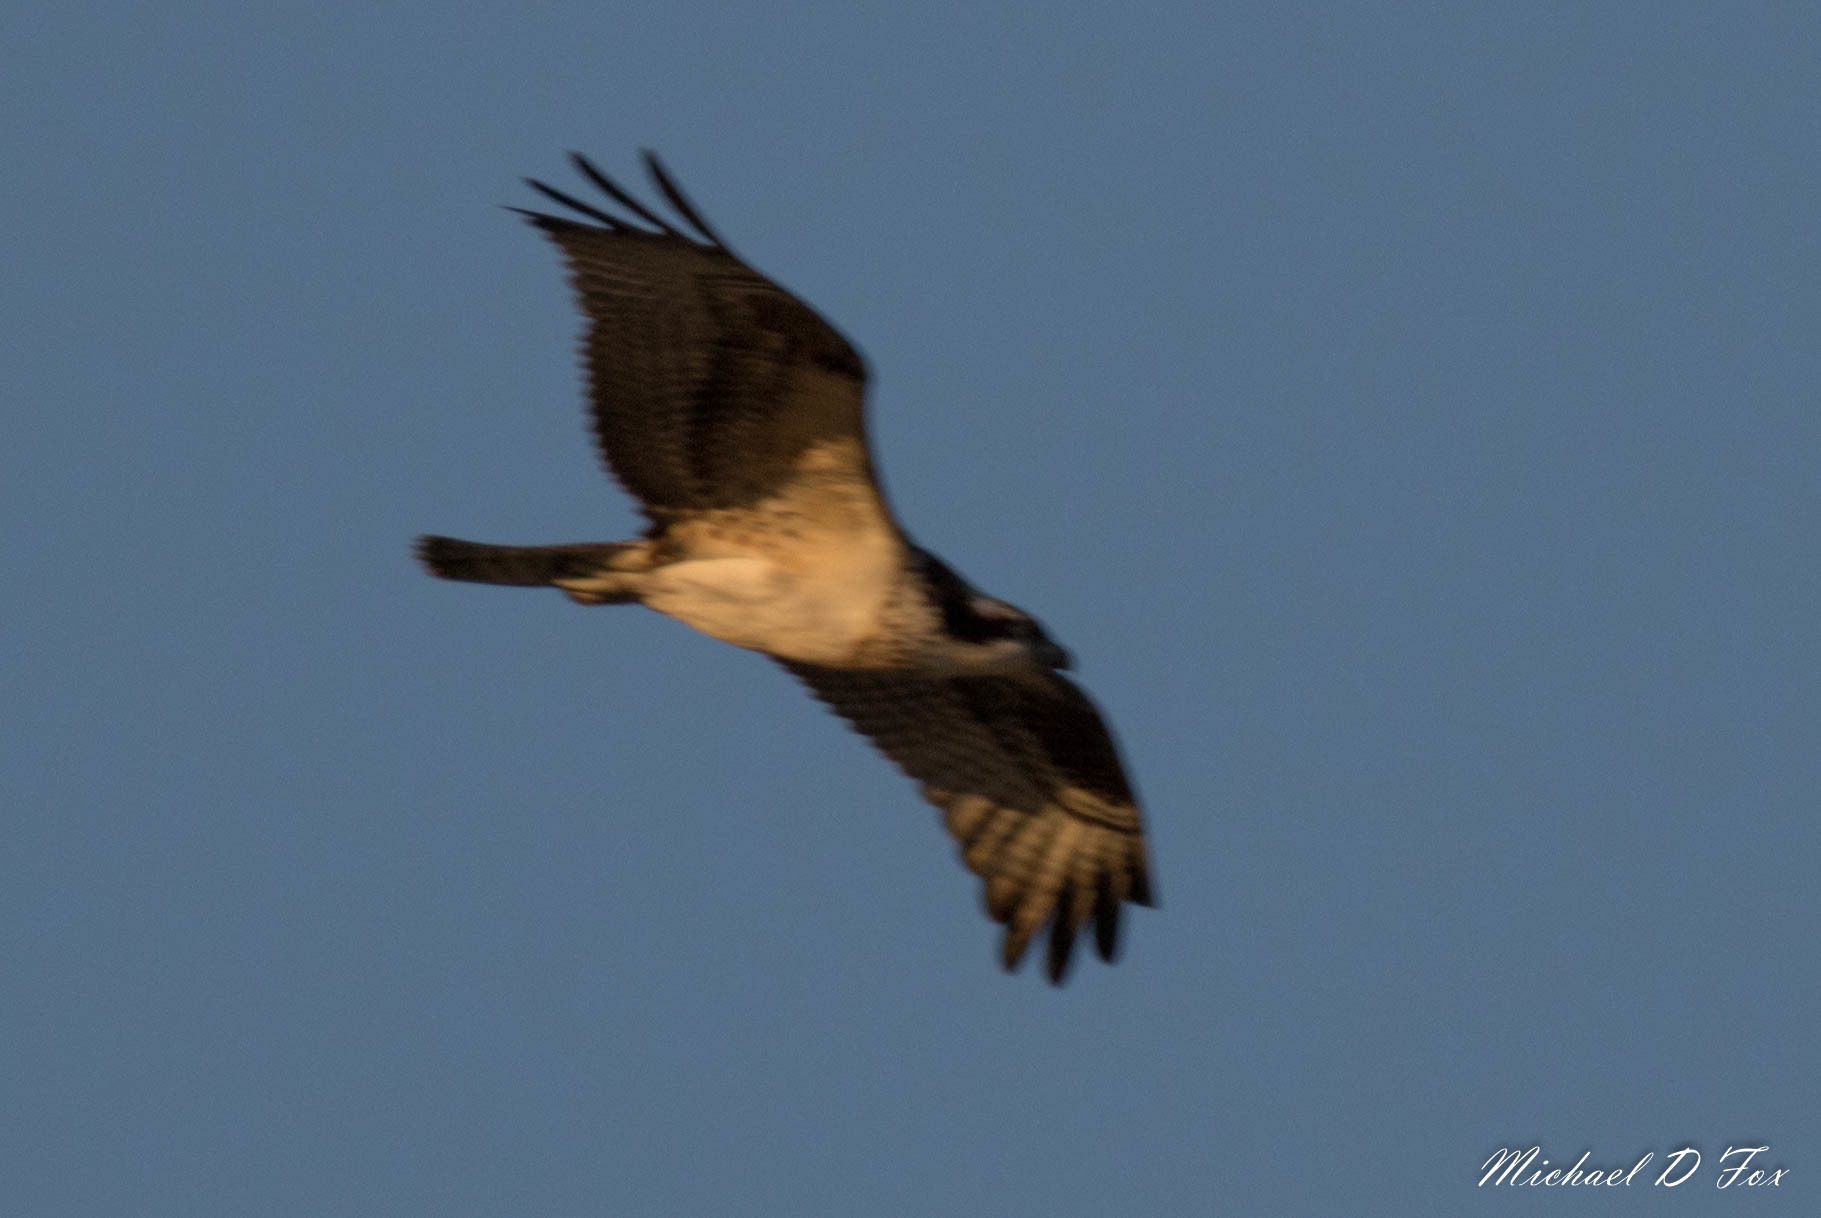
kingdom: Animalia
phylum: Chordata
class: Aves
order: Accipitriformes
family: Pandionidae
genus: Pandion
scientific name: Pandion haliaetus
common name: Osprey
